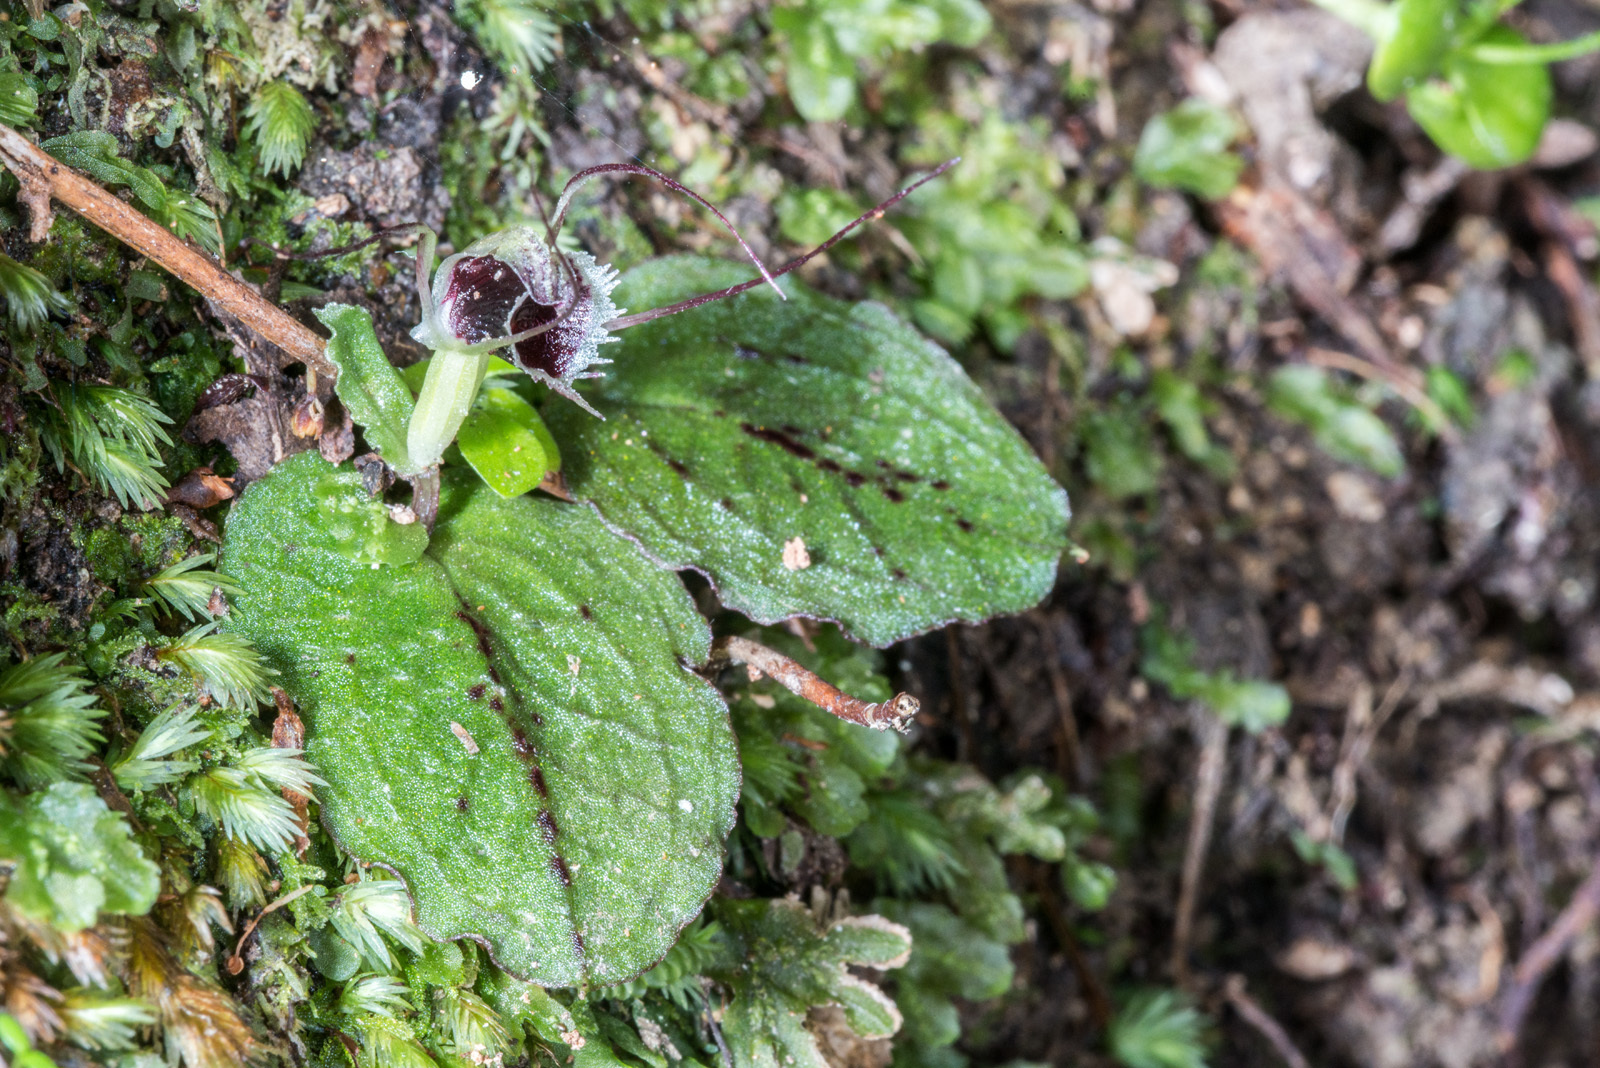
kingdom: Plantae
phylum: Tracheophyta
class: Liliopsida
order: Asparagales
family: Orchidaceae
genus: Corybas
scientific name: Corybas oblongus
